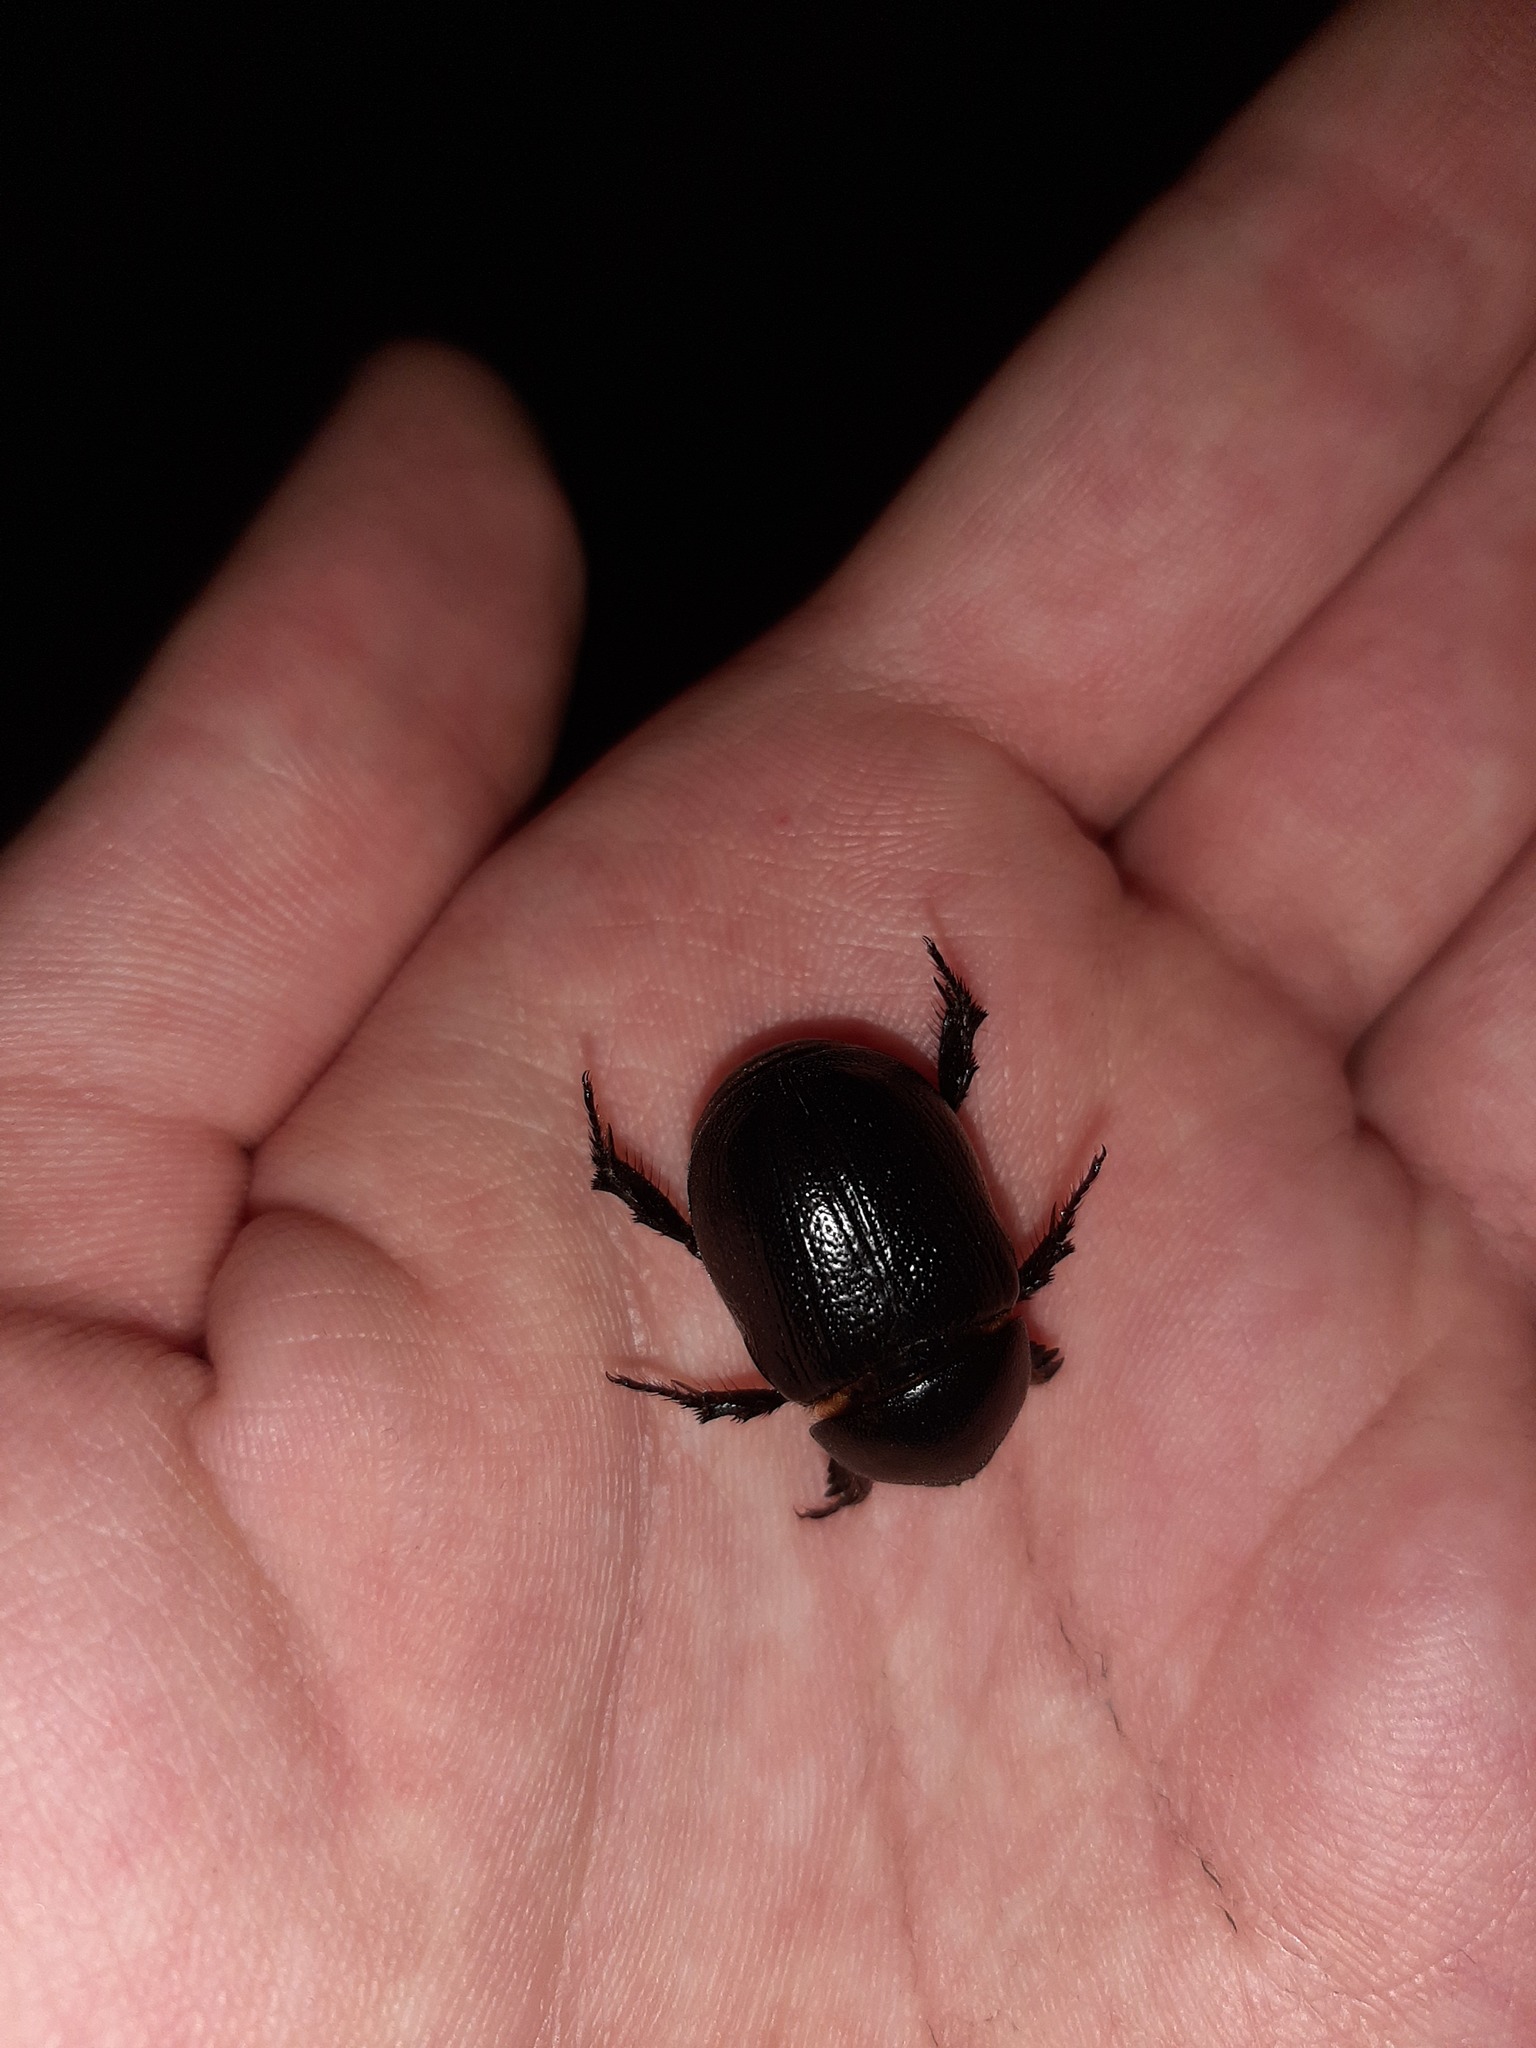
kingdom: Animalia
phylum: Arthropoda
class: Insecta
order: Coleoptera
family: Scarabaeidae
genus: Pentodon
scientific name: Pentodon bidens
